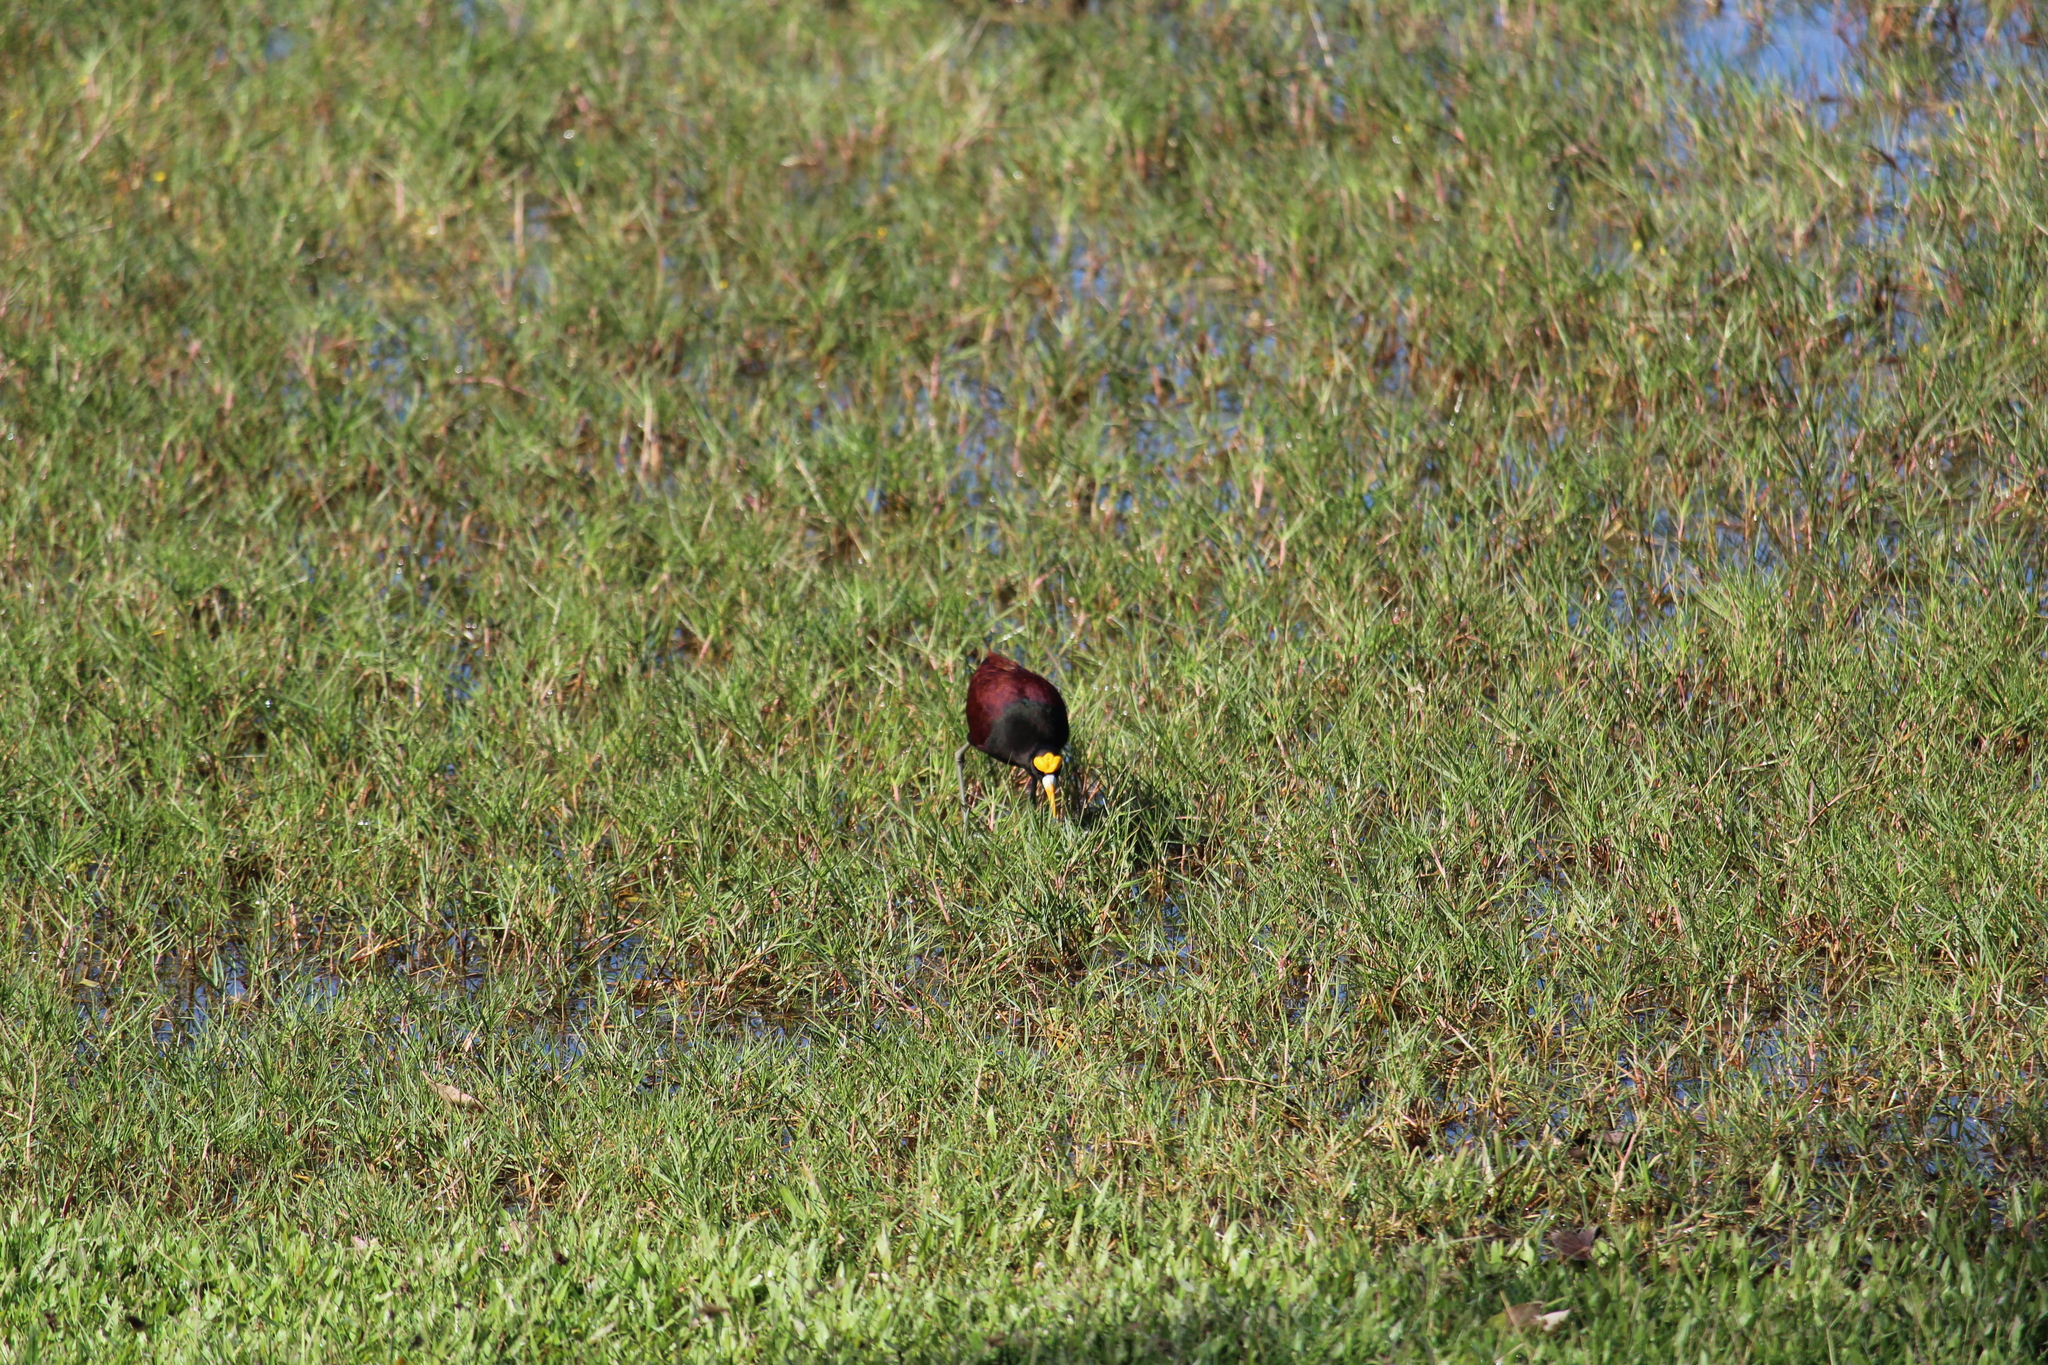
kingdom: Animalia
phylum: Chordata
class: Aves
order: Charadriiformes
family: Jacanidae
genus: Jacana
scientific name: Jacana spinosa
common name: Northern jacana
